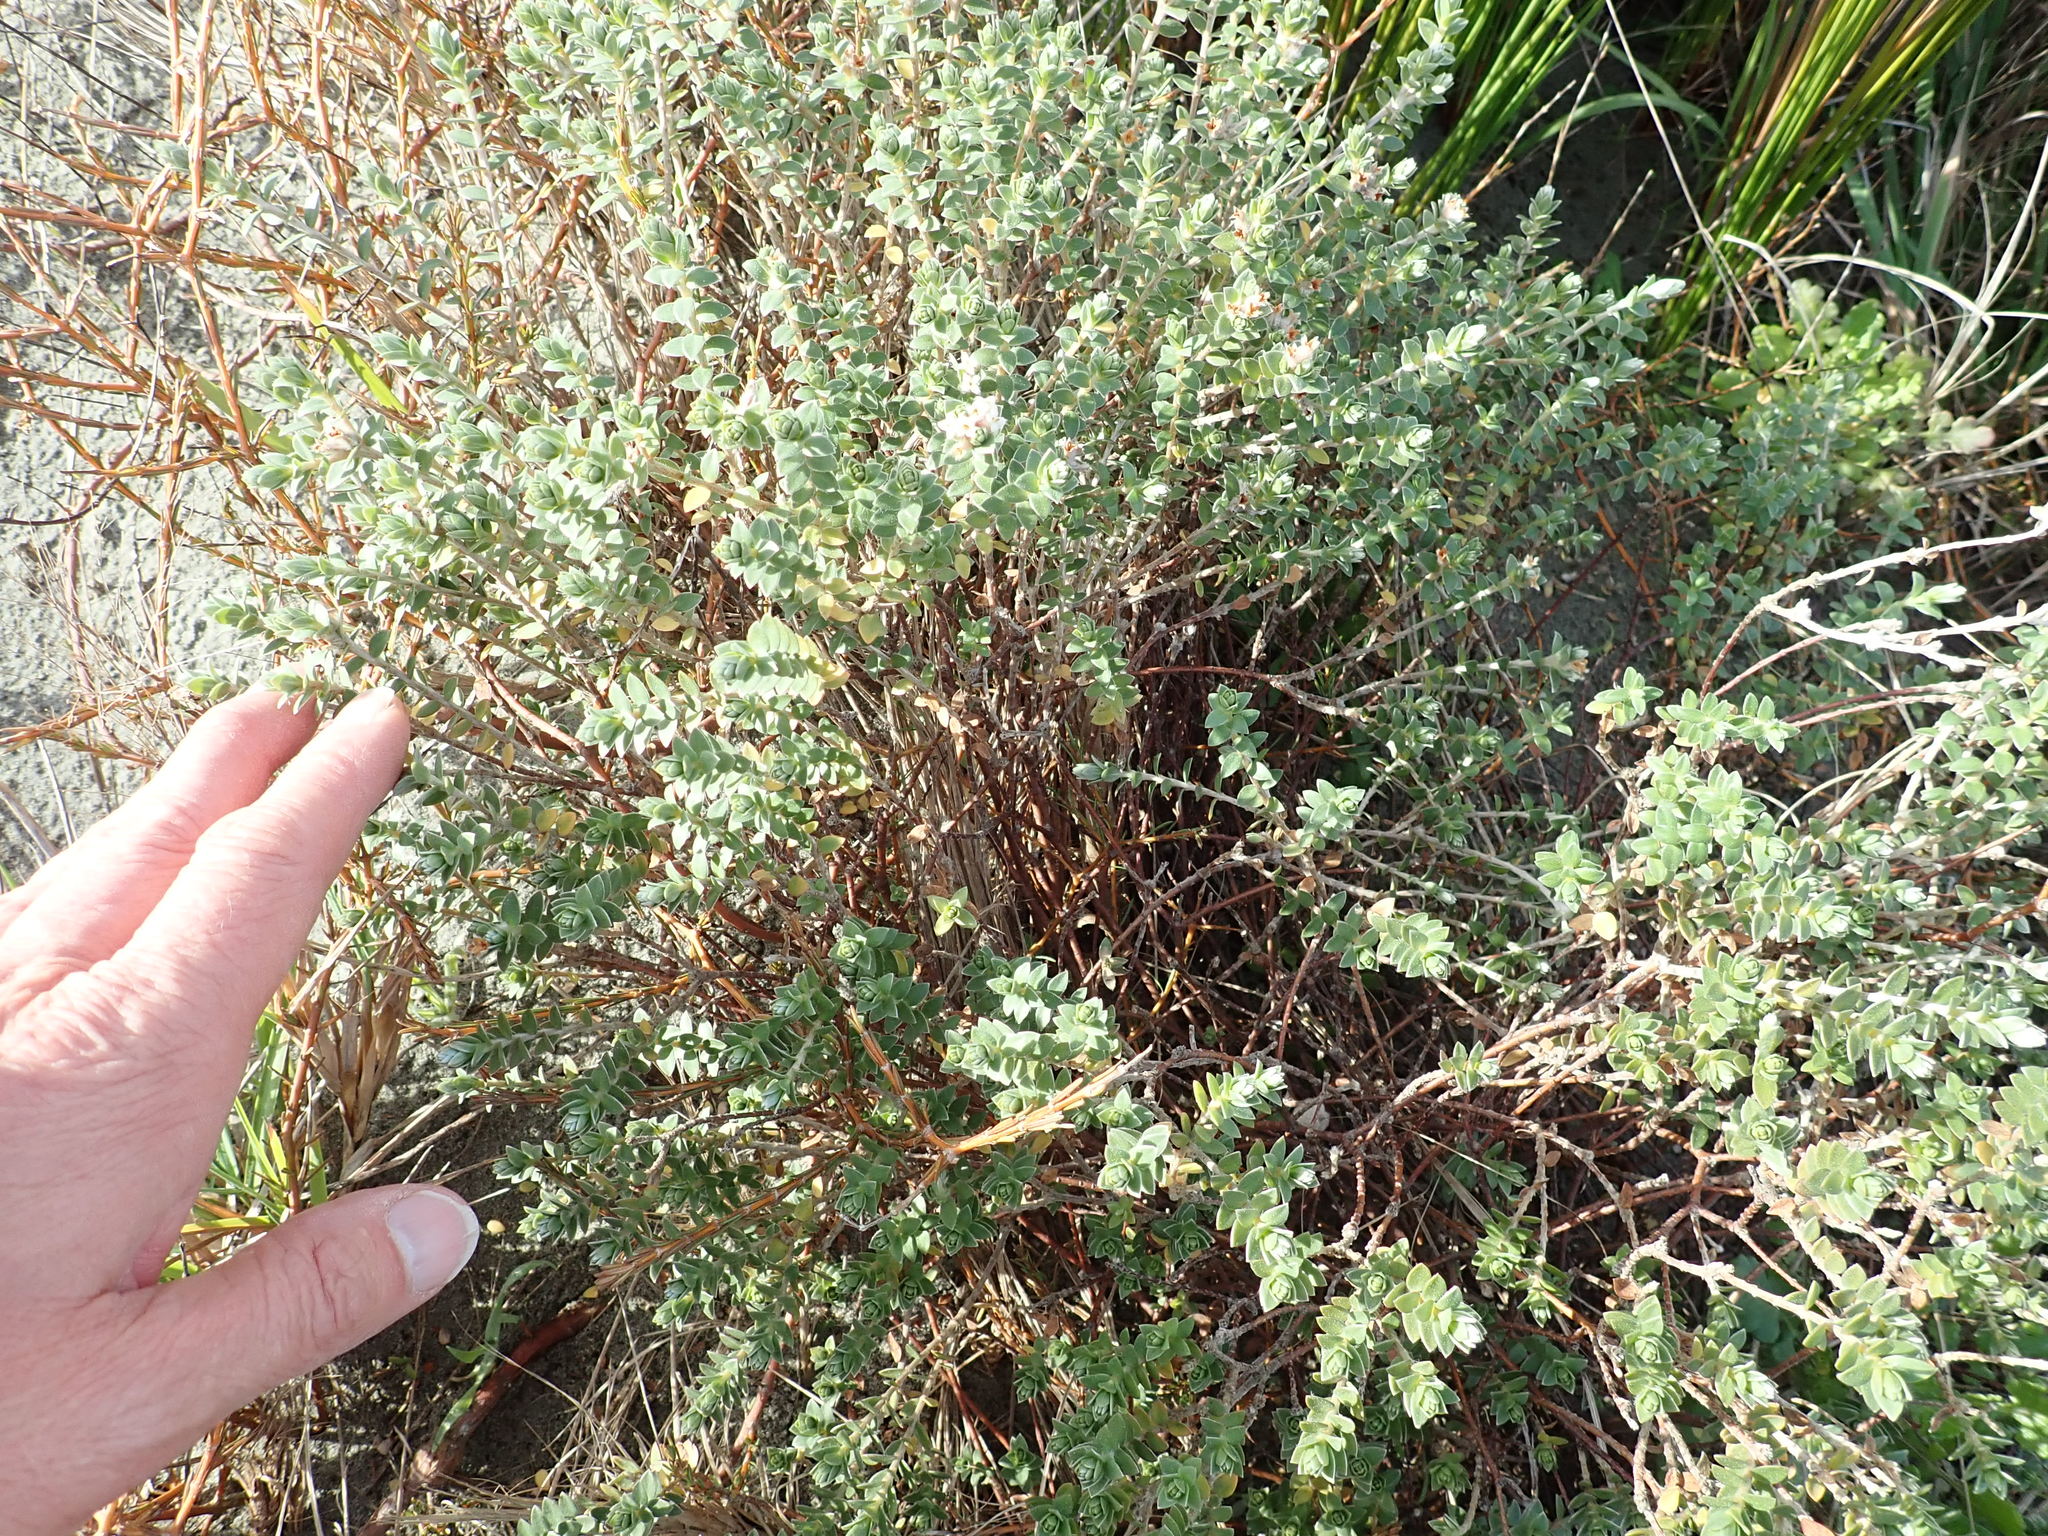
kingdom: Plantae
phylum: Tracheophyta
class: Magnoliopsida
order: Malvales
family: Thymelaeaceae
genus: Pimelea
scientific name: Pimelea villosa
